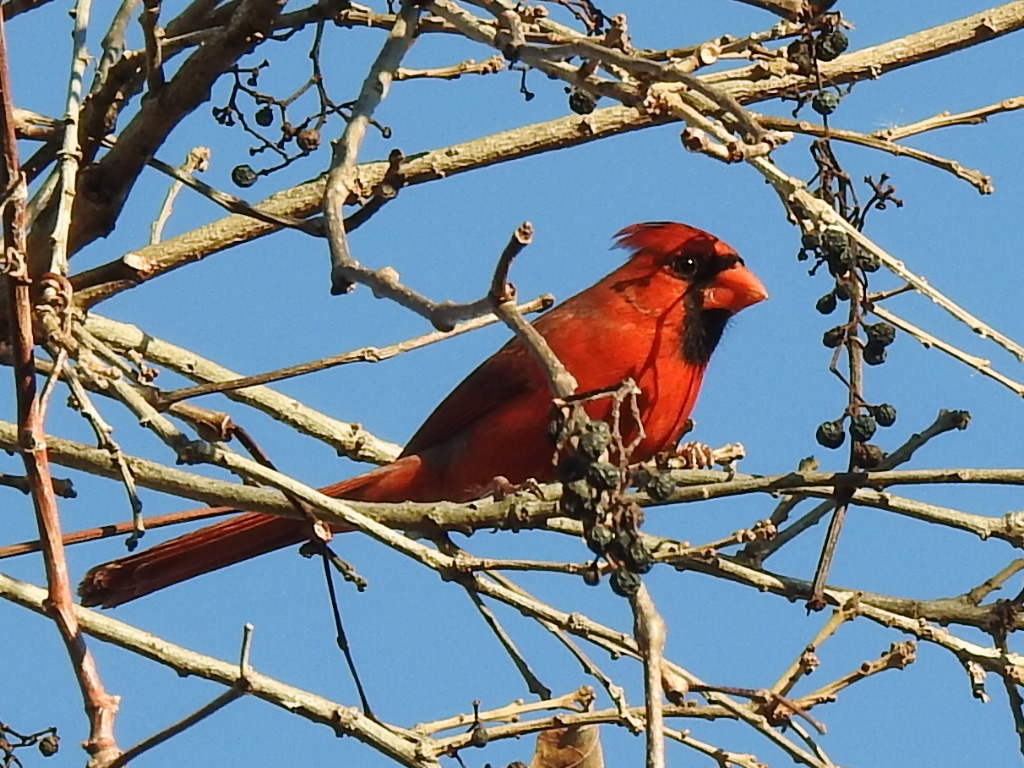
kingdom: Animalia
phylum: Chordata
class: Aves
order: Passeriformes
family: Cardinalidae
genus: Cardinalis
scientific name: Cardinalis cardinalis
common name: Northern cardinal
